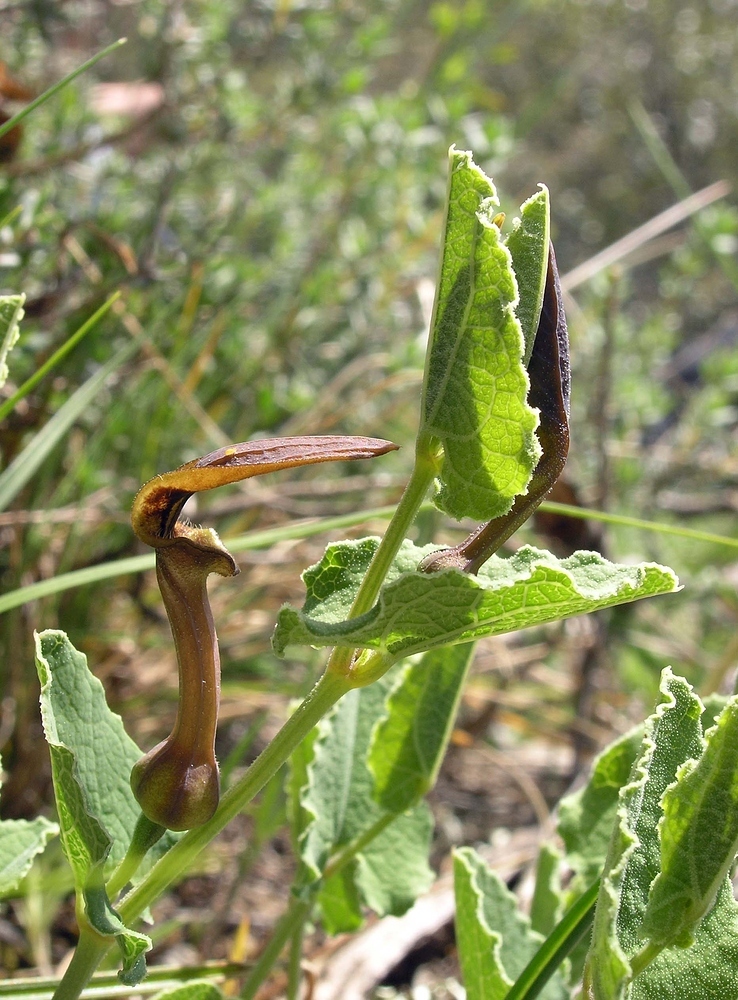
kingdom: Plantae
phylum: Tracheophyta
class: Magnoliopsida
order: Piperales
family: Aristolochiaceae
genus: Aristolochia
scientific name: Aristolochia pistolochia
